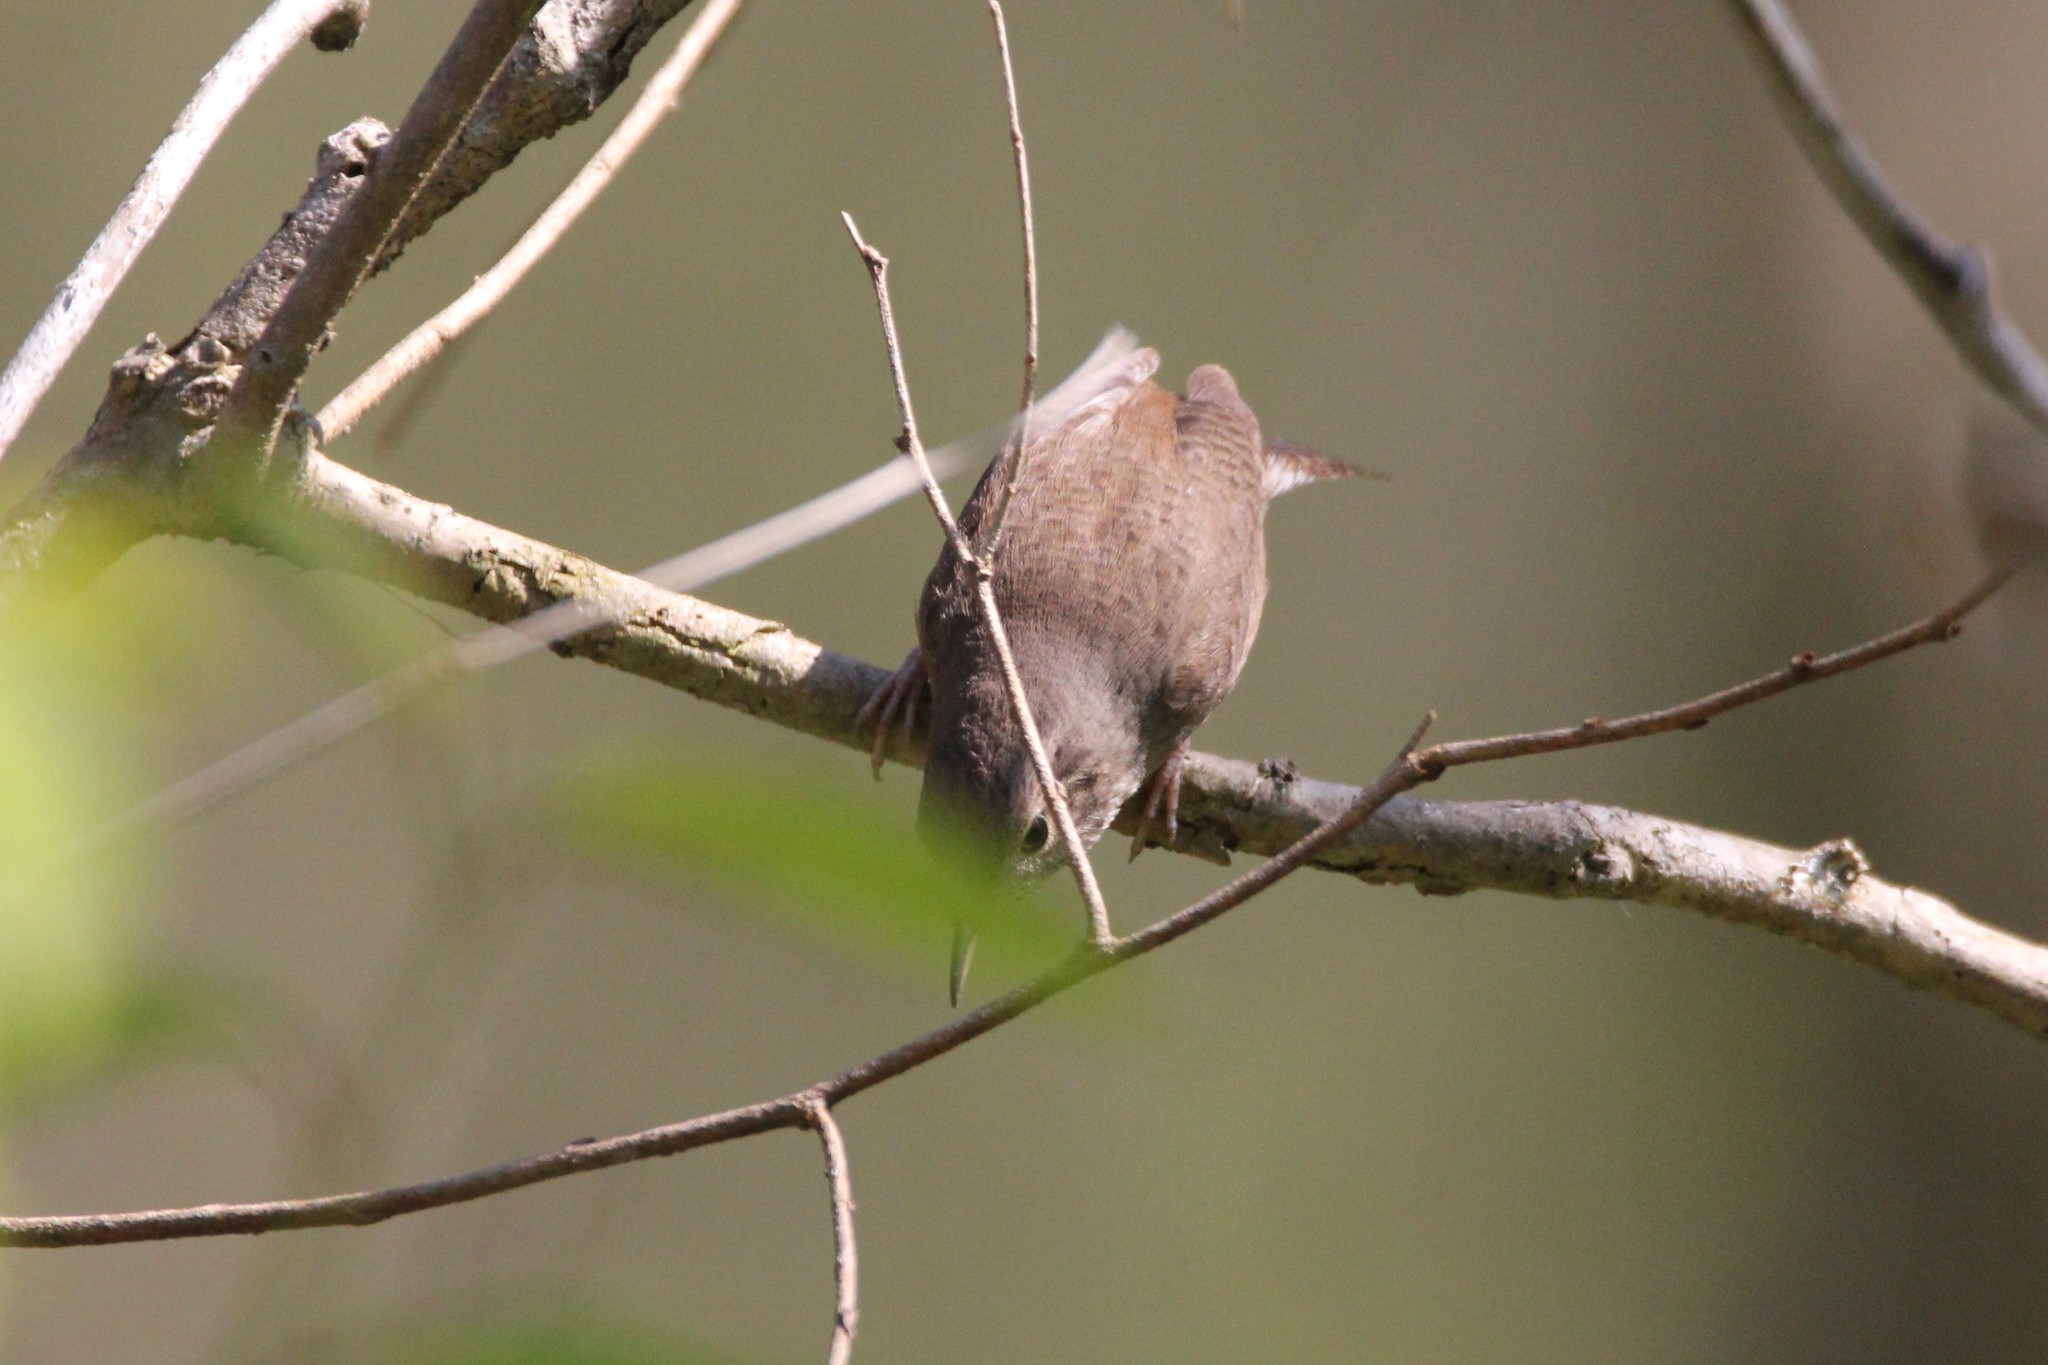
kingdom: Animalia
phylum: Chordata
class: Aves
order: Passeriformes
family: Troglodytidae
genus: Troglodytes
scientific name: Troglodytes aedon
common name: House wren
